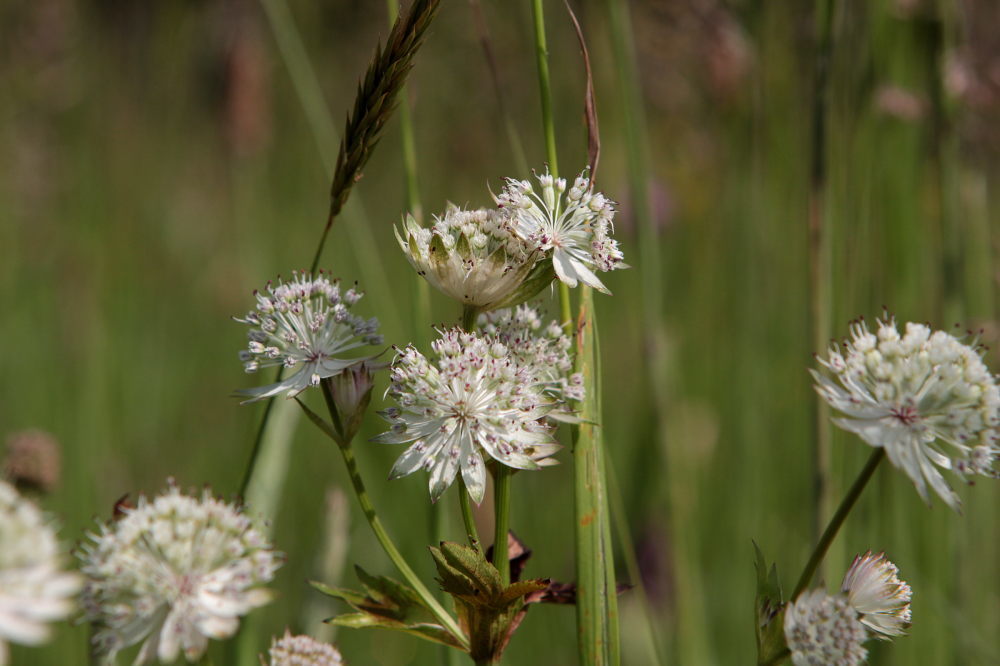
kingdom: Plantae
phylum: Tracheophyta
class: Magnoliopsida
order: Apiales
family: Apiaceae
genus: Astrantia
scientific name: Astrantia major
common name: Greater masterwort
